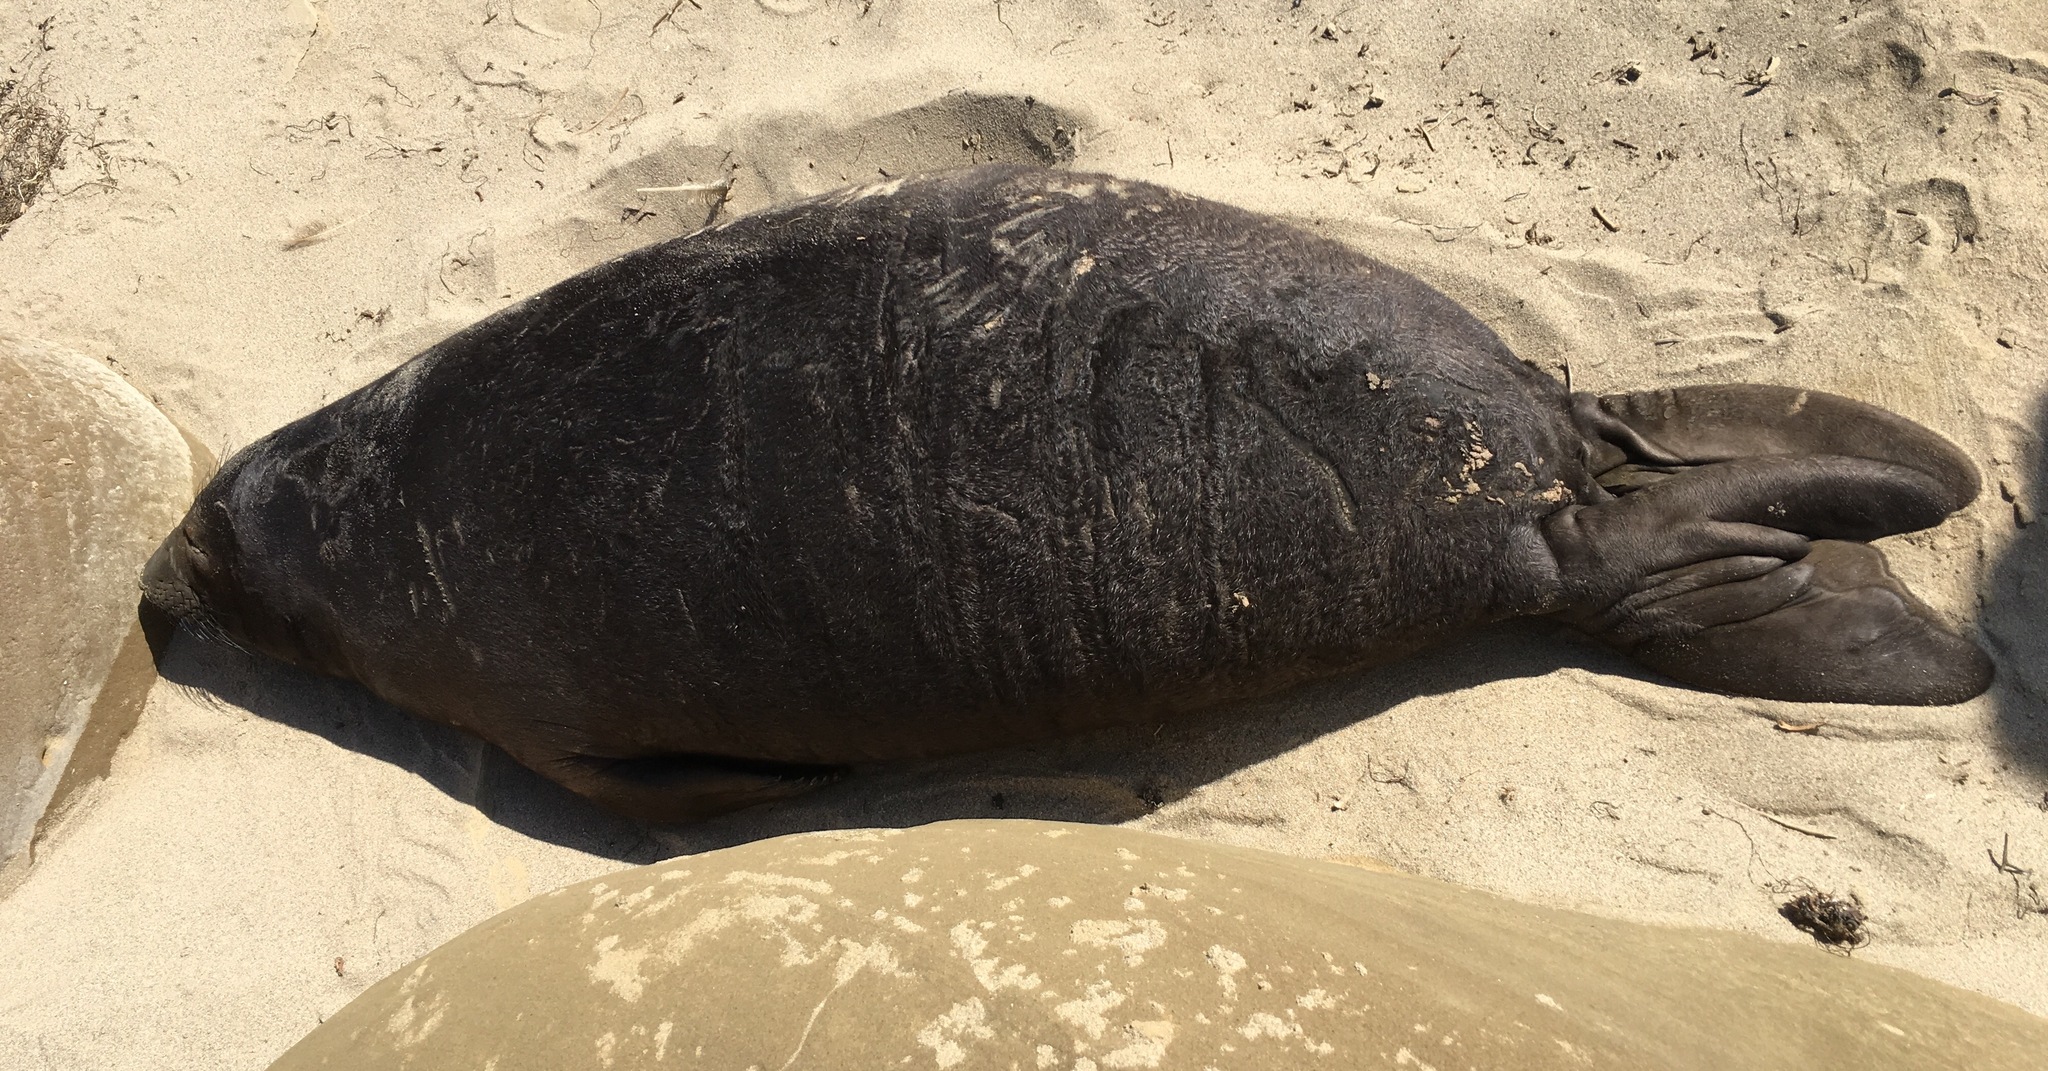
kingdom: Animalia
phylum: Chordata
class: Mammalia
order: Carnivora
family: Phocidae
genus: Mirounga
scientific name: Mirounga angustirostris
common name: Northern elephant seal
